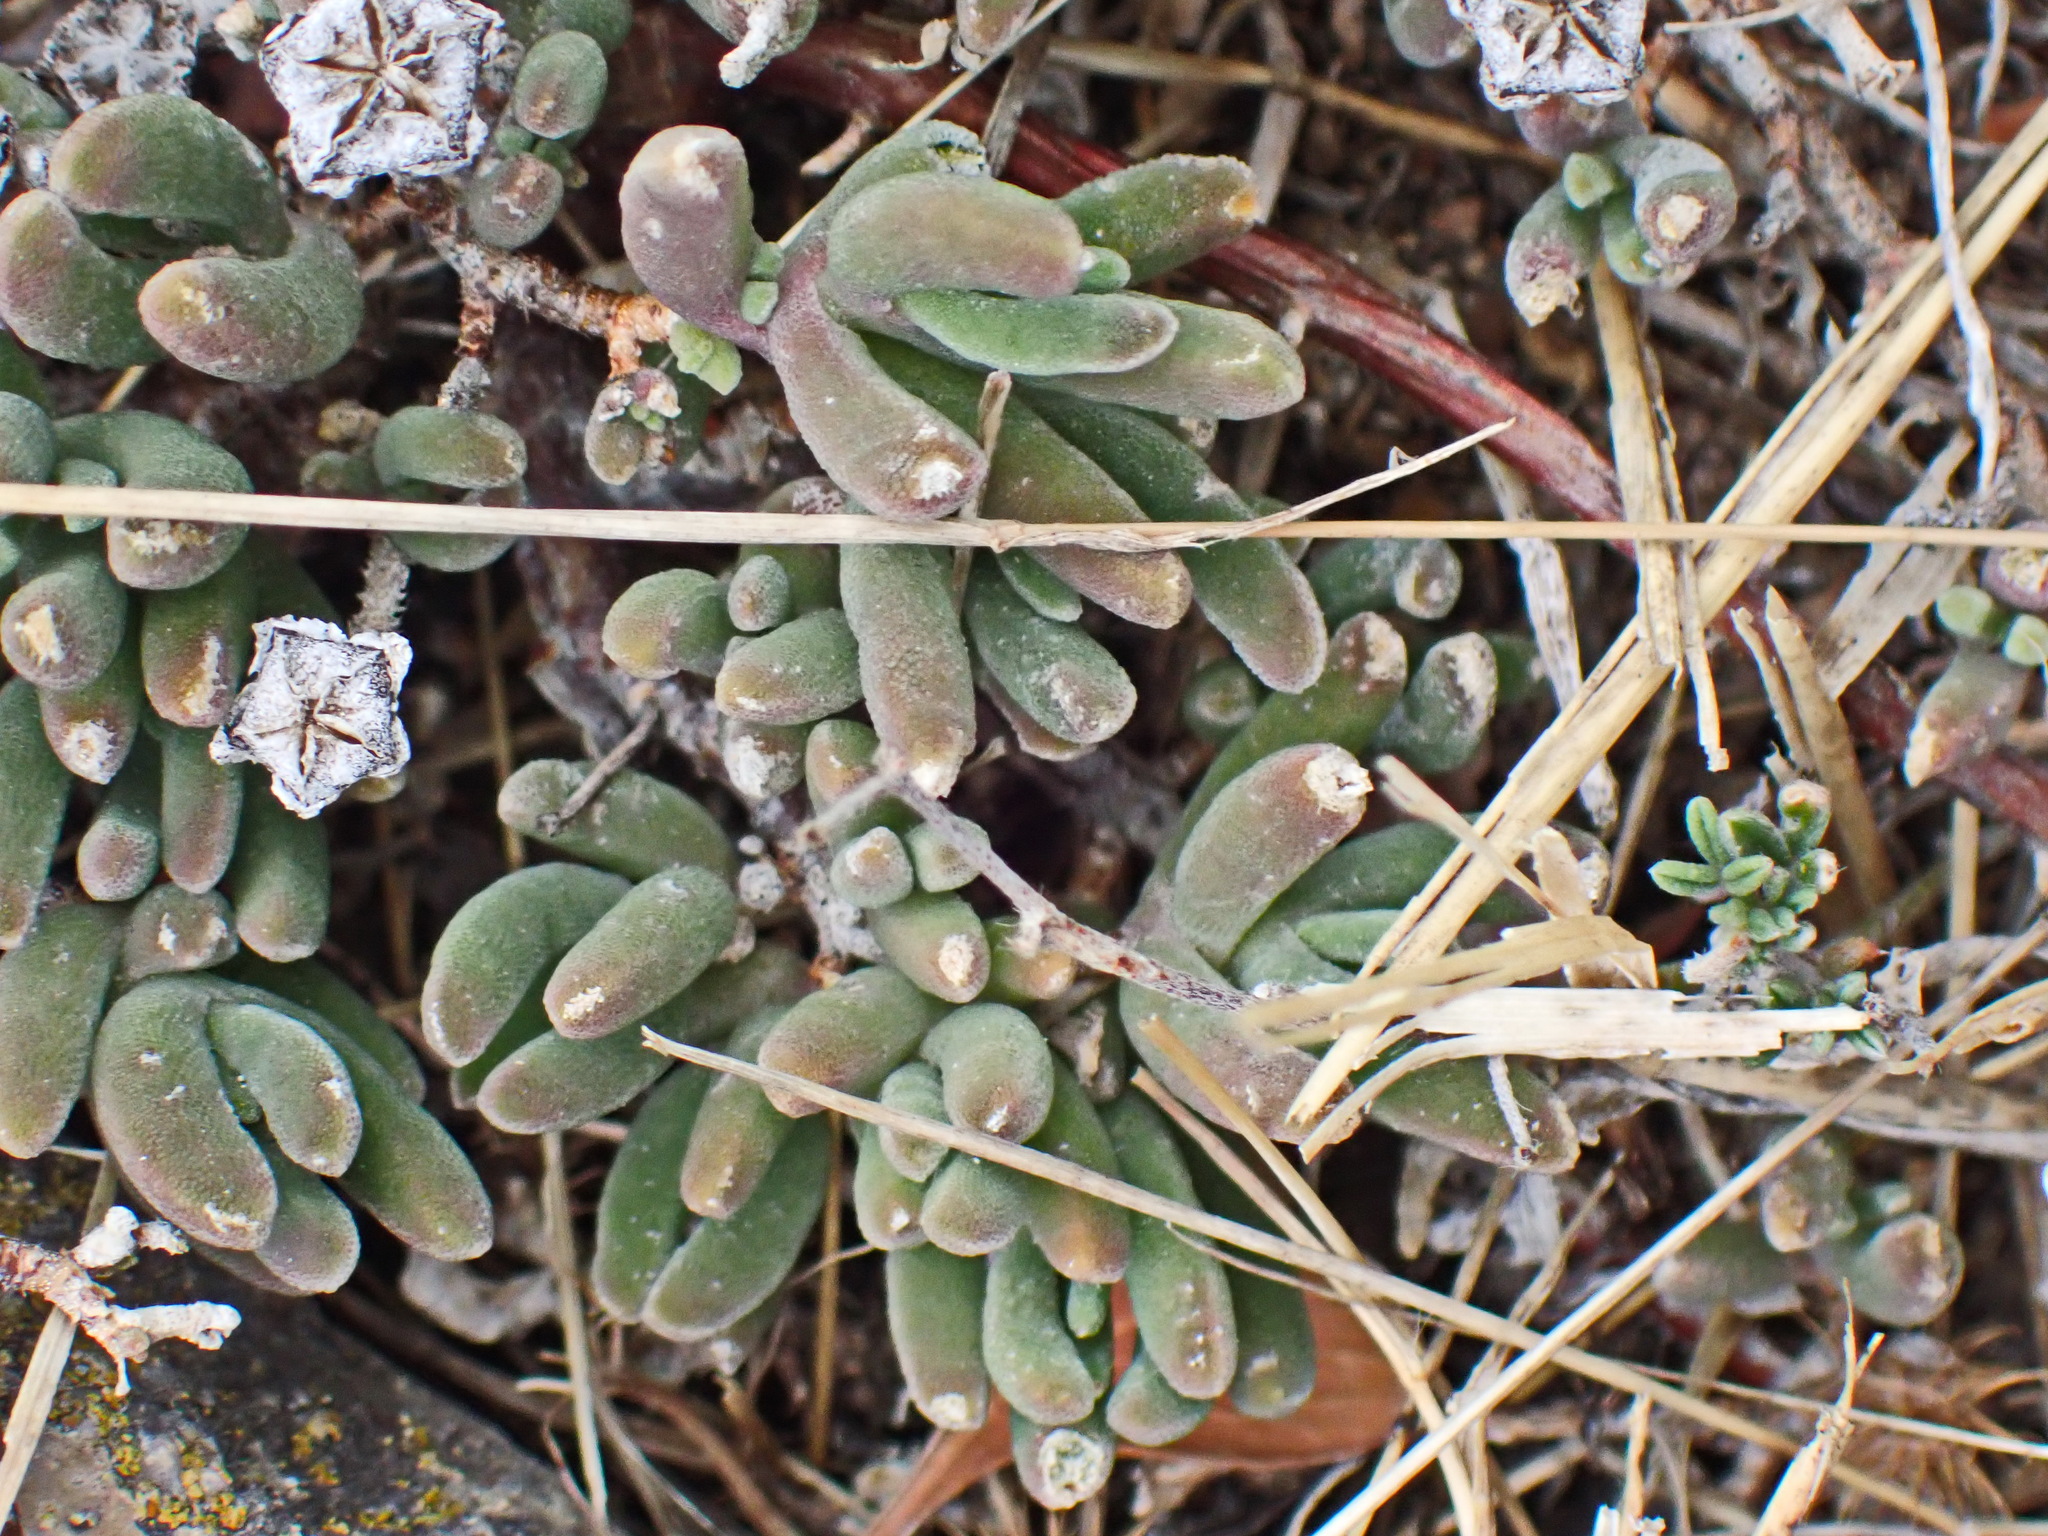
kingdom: Plantae
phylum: Tracheophyta
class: Magnoliopsida
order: Caryophyllales
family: Aizoaceae
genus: Drosanthemum
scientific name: Drosanthemum floribundum
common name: Pale dewplant
